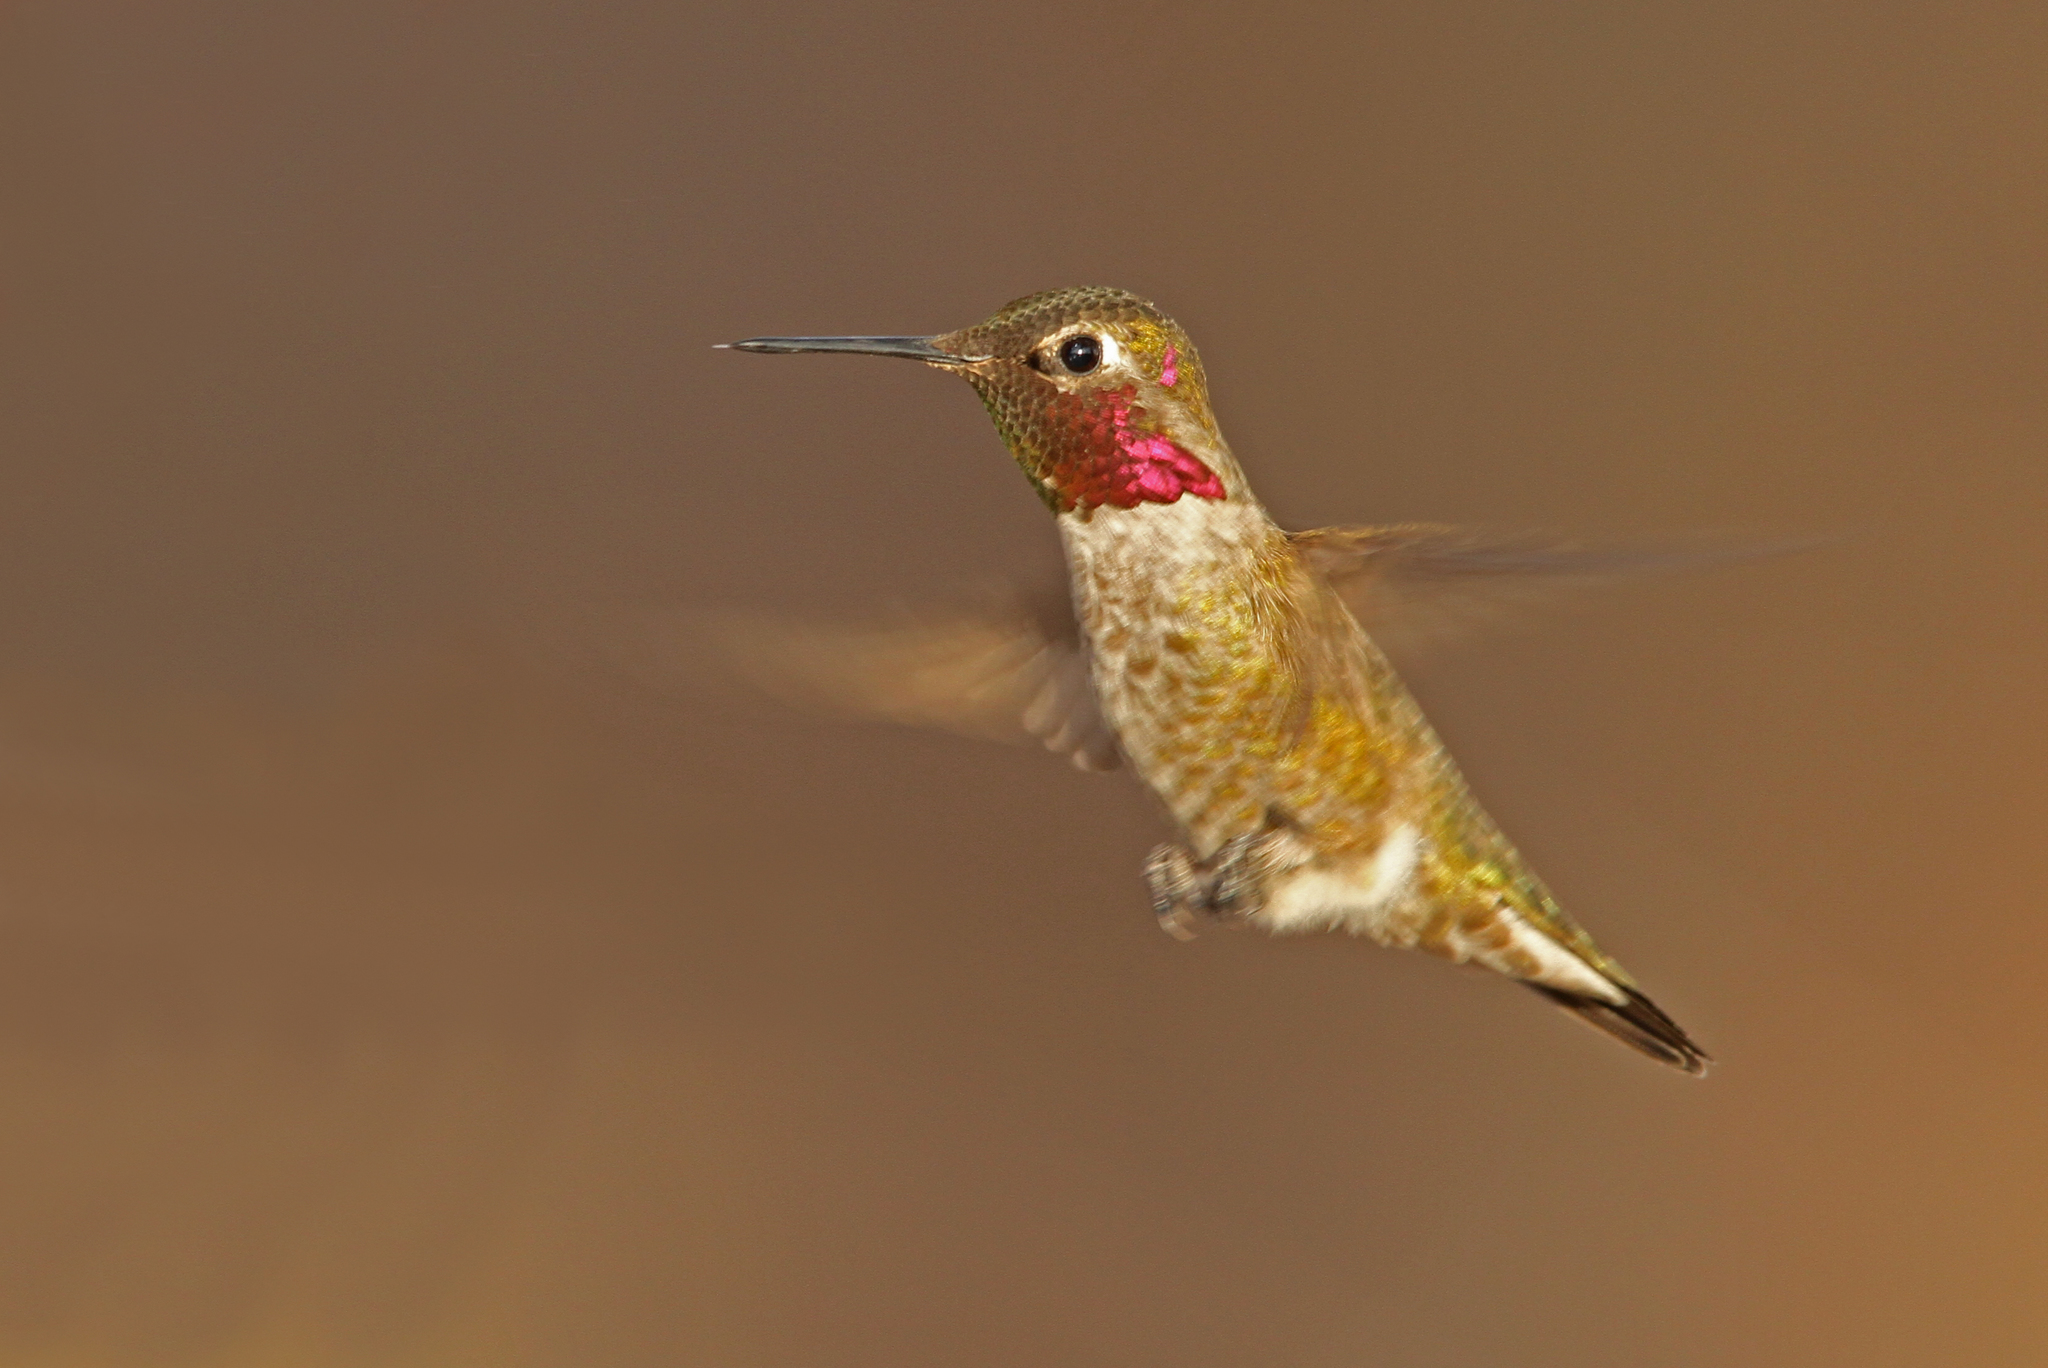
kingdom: Animalia
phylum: Chordata
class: Aves
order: Apodiformes
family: Trochilidae
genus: Calypte
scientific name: Calypte anna
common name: Anna's hummingbird
